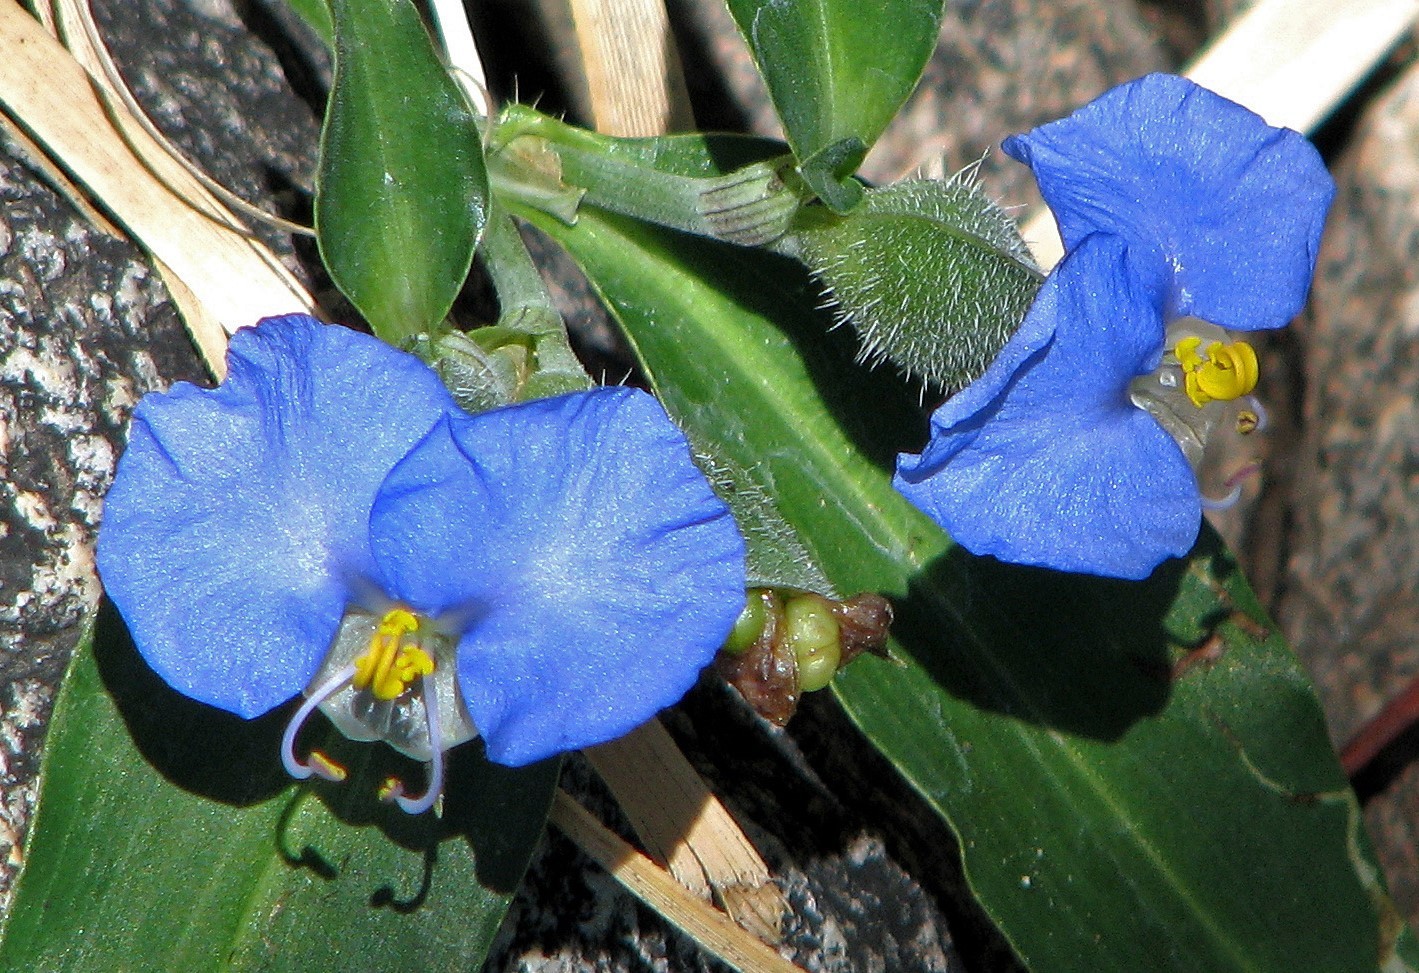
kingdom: Plantae
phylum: Tracheophyta
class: Liliopsida
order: Commelinales
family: Commelinaceae
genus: Commelina
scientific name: Commelina erecta
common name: Blousel blommetjie
